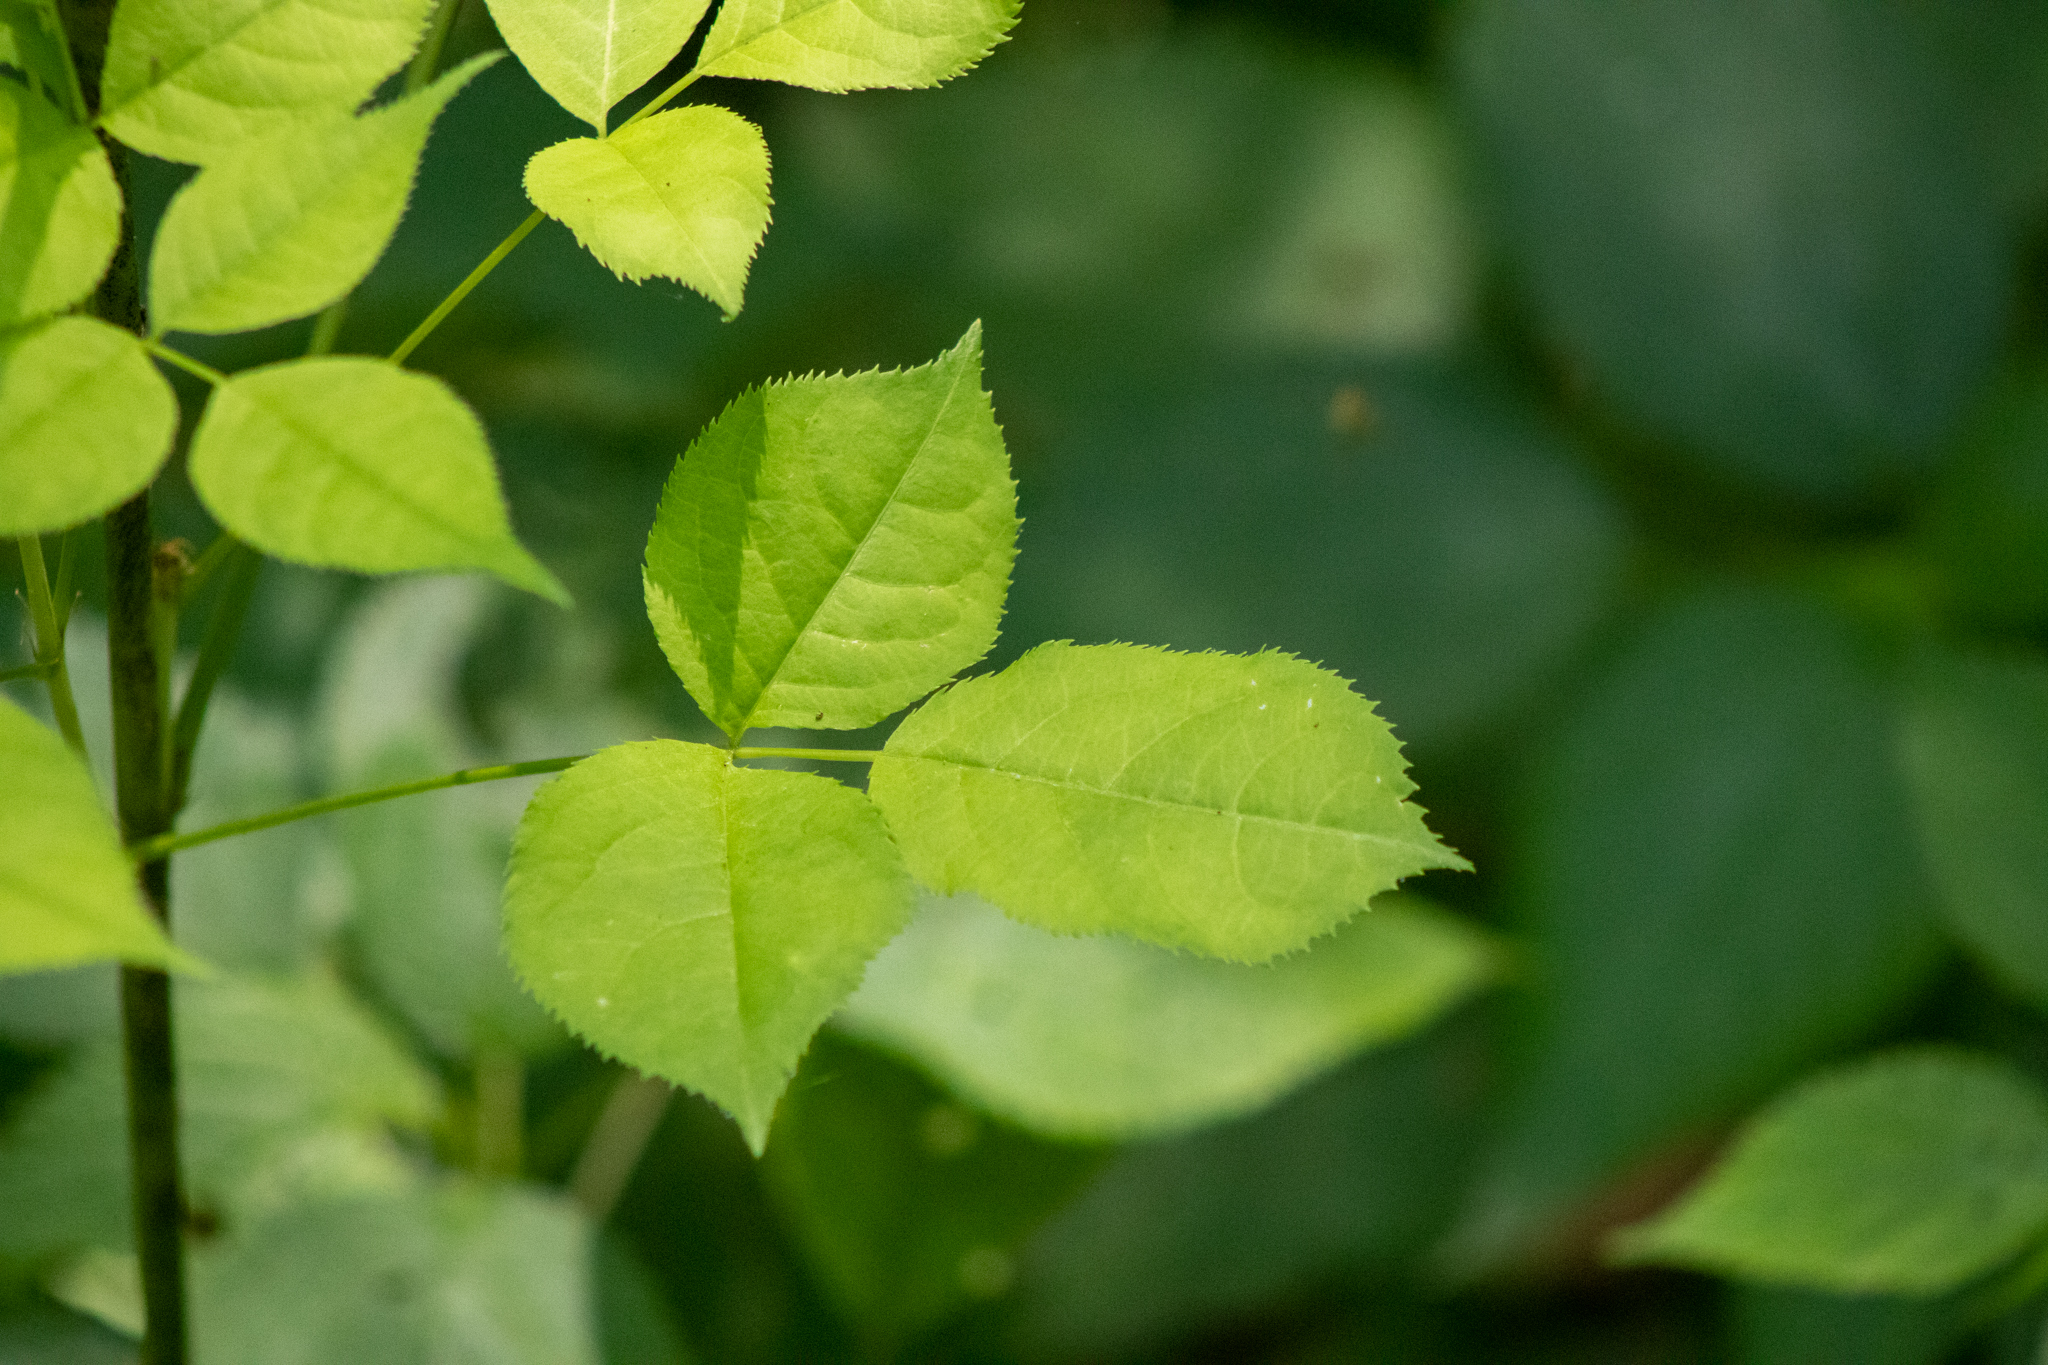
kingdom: Plantae
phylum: Tracheophyta
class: Magnoliopsida
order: Crossosomatales
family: Staphyleaceae
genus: Staphylea
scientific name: Staphylea trifolia
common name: American bladdernut
